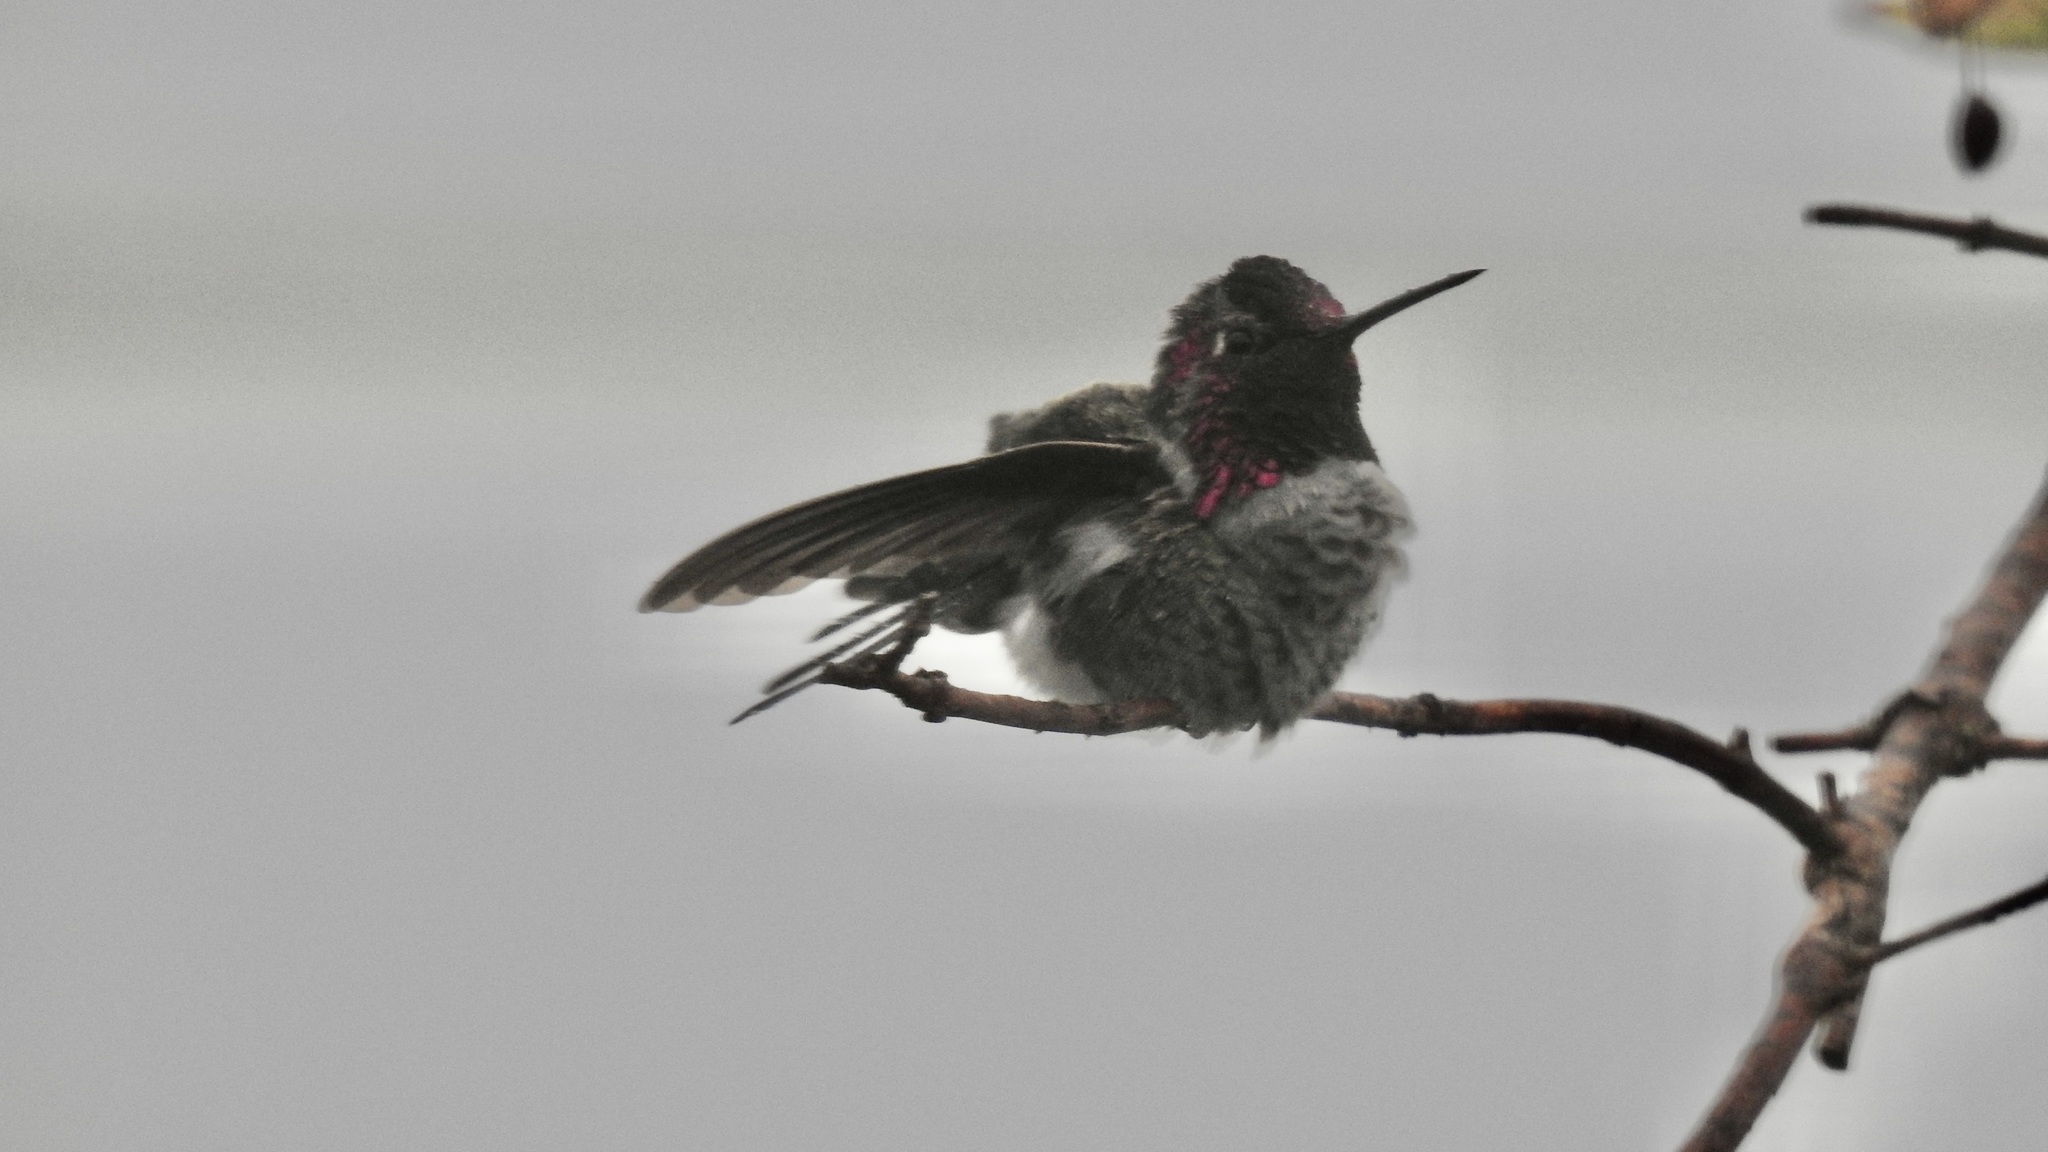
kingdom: Animalia
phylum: Chordata
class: Aves
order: Apodiformes
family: Trochilidae
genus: Calypte
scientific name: Calypte anna
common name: Anna's hummingbird
